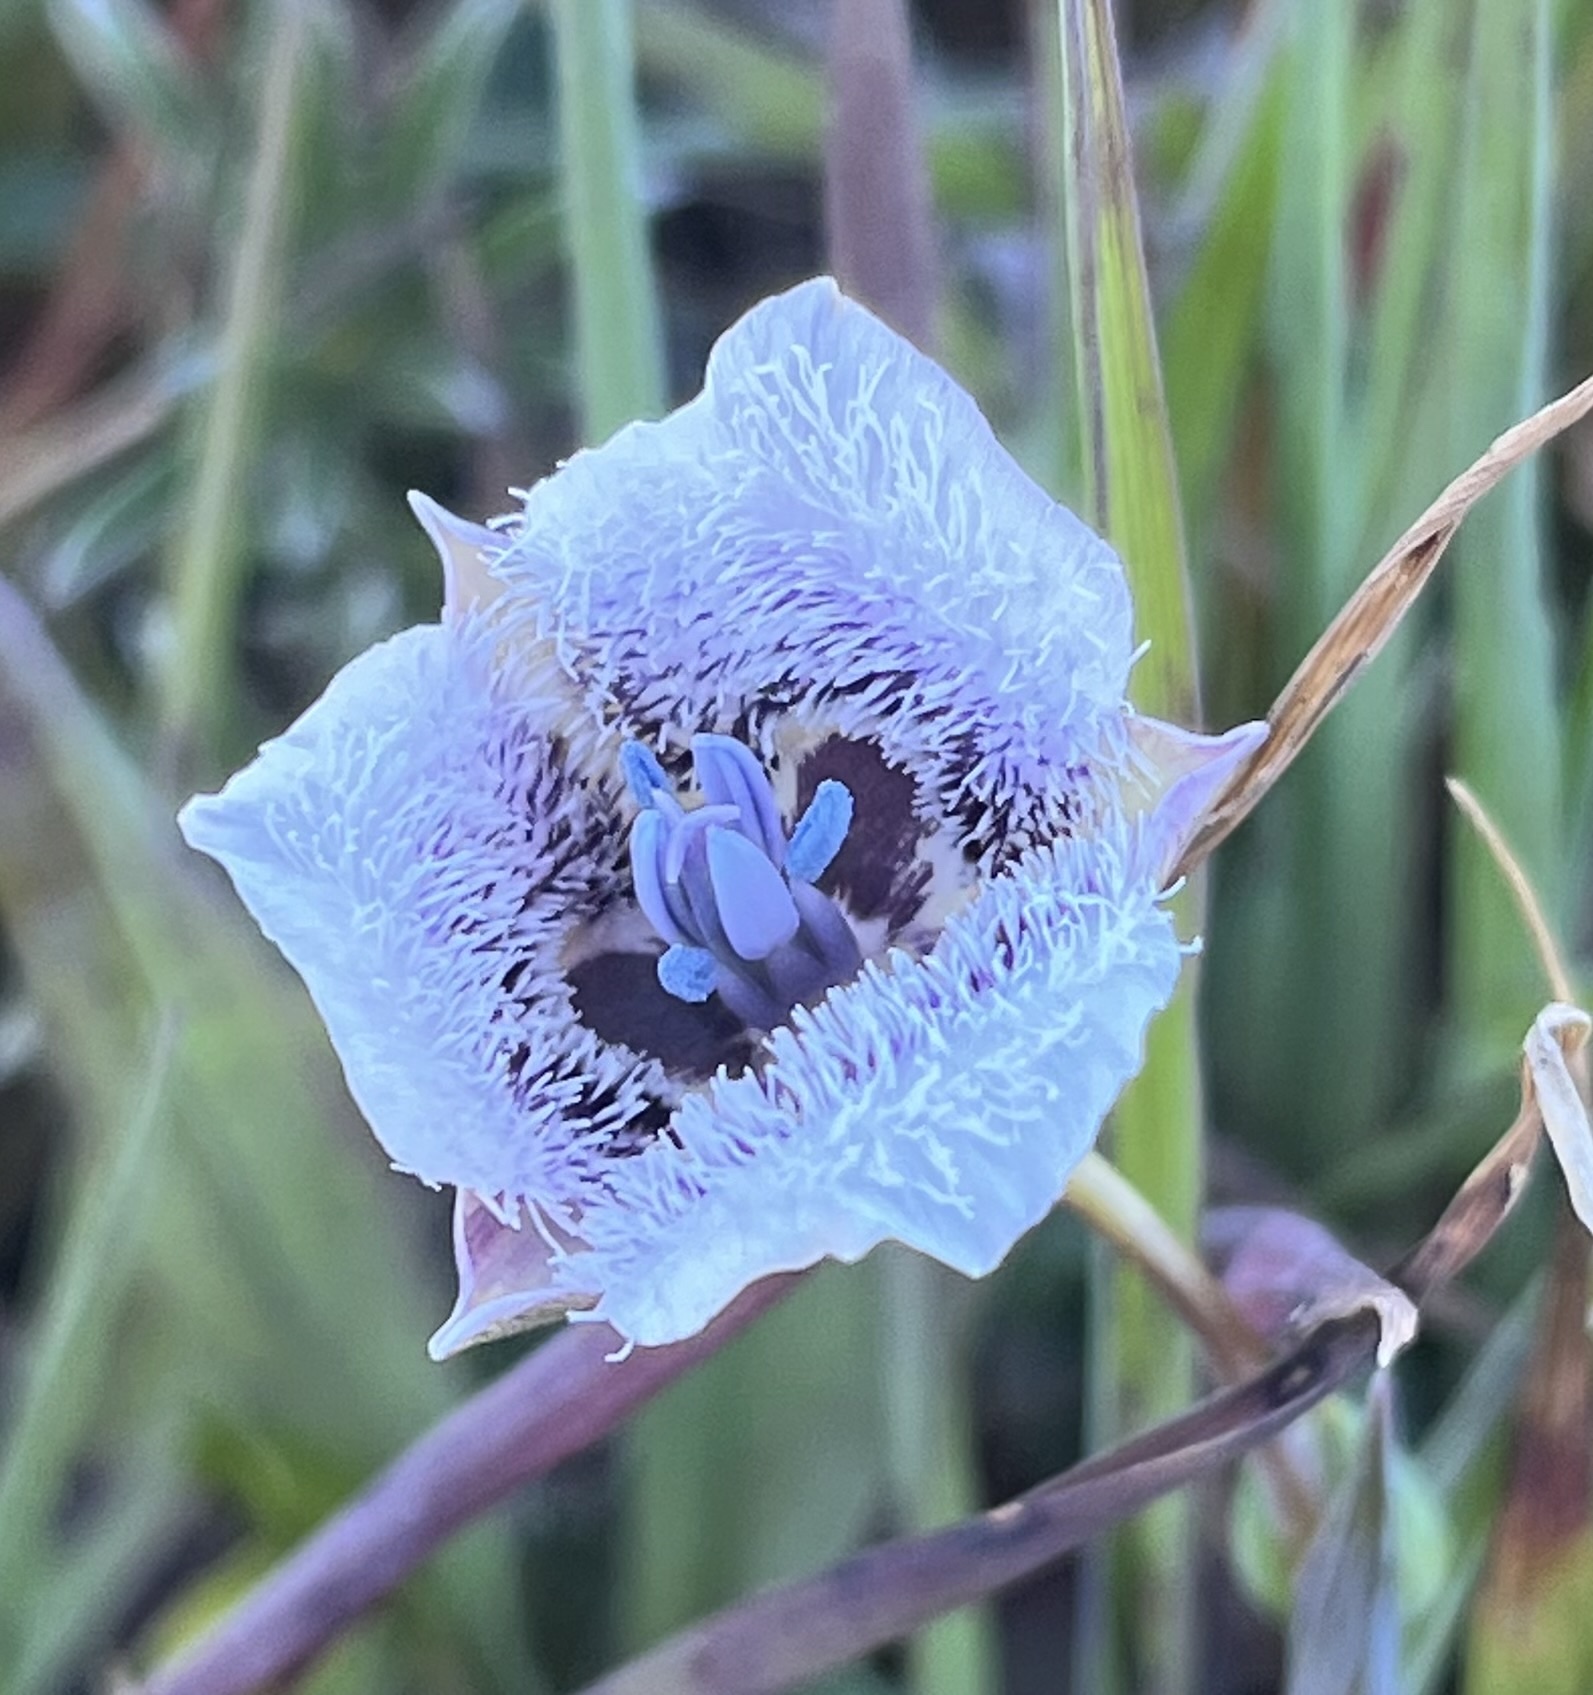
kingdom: Plantae
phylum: Tracheophyta
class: Liliopsida
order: Liliales
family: Liliaceae
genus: Calochortus
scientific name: Calochortus tolmiei
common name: Pussy-ears
